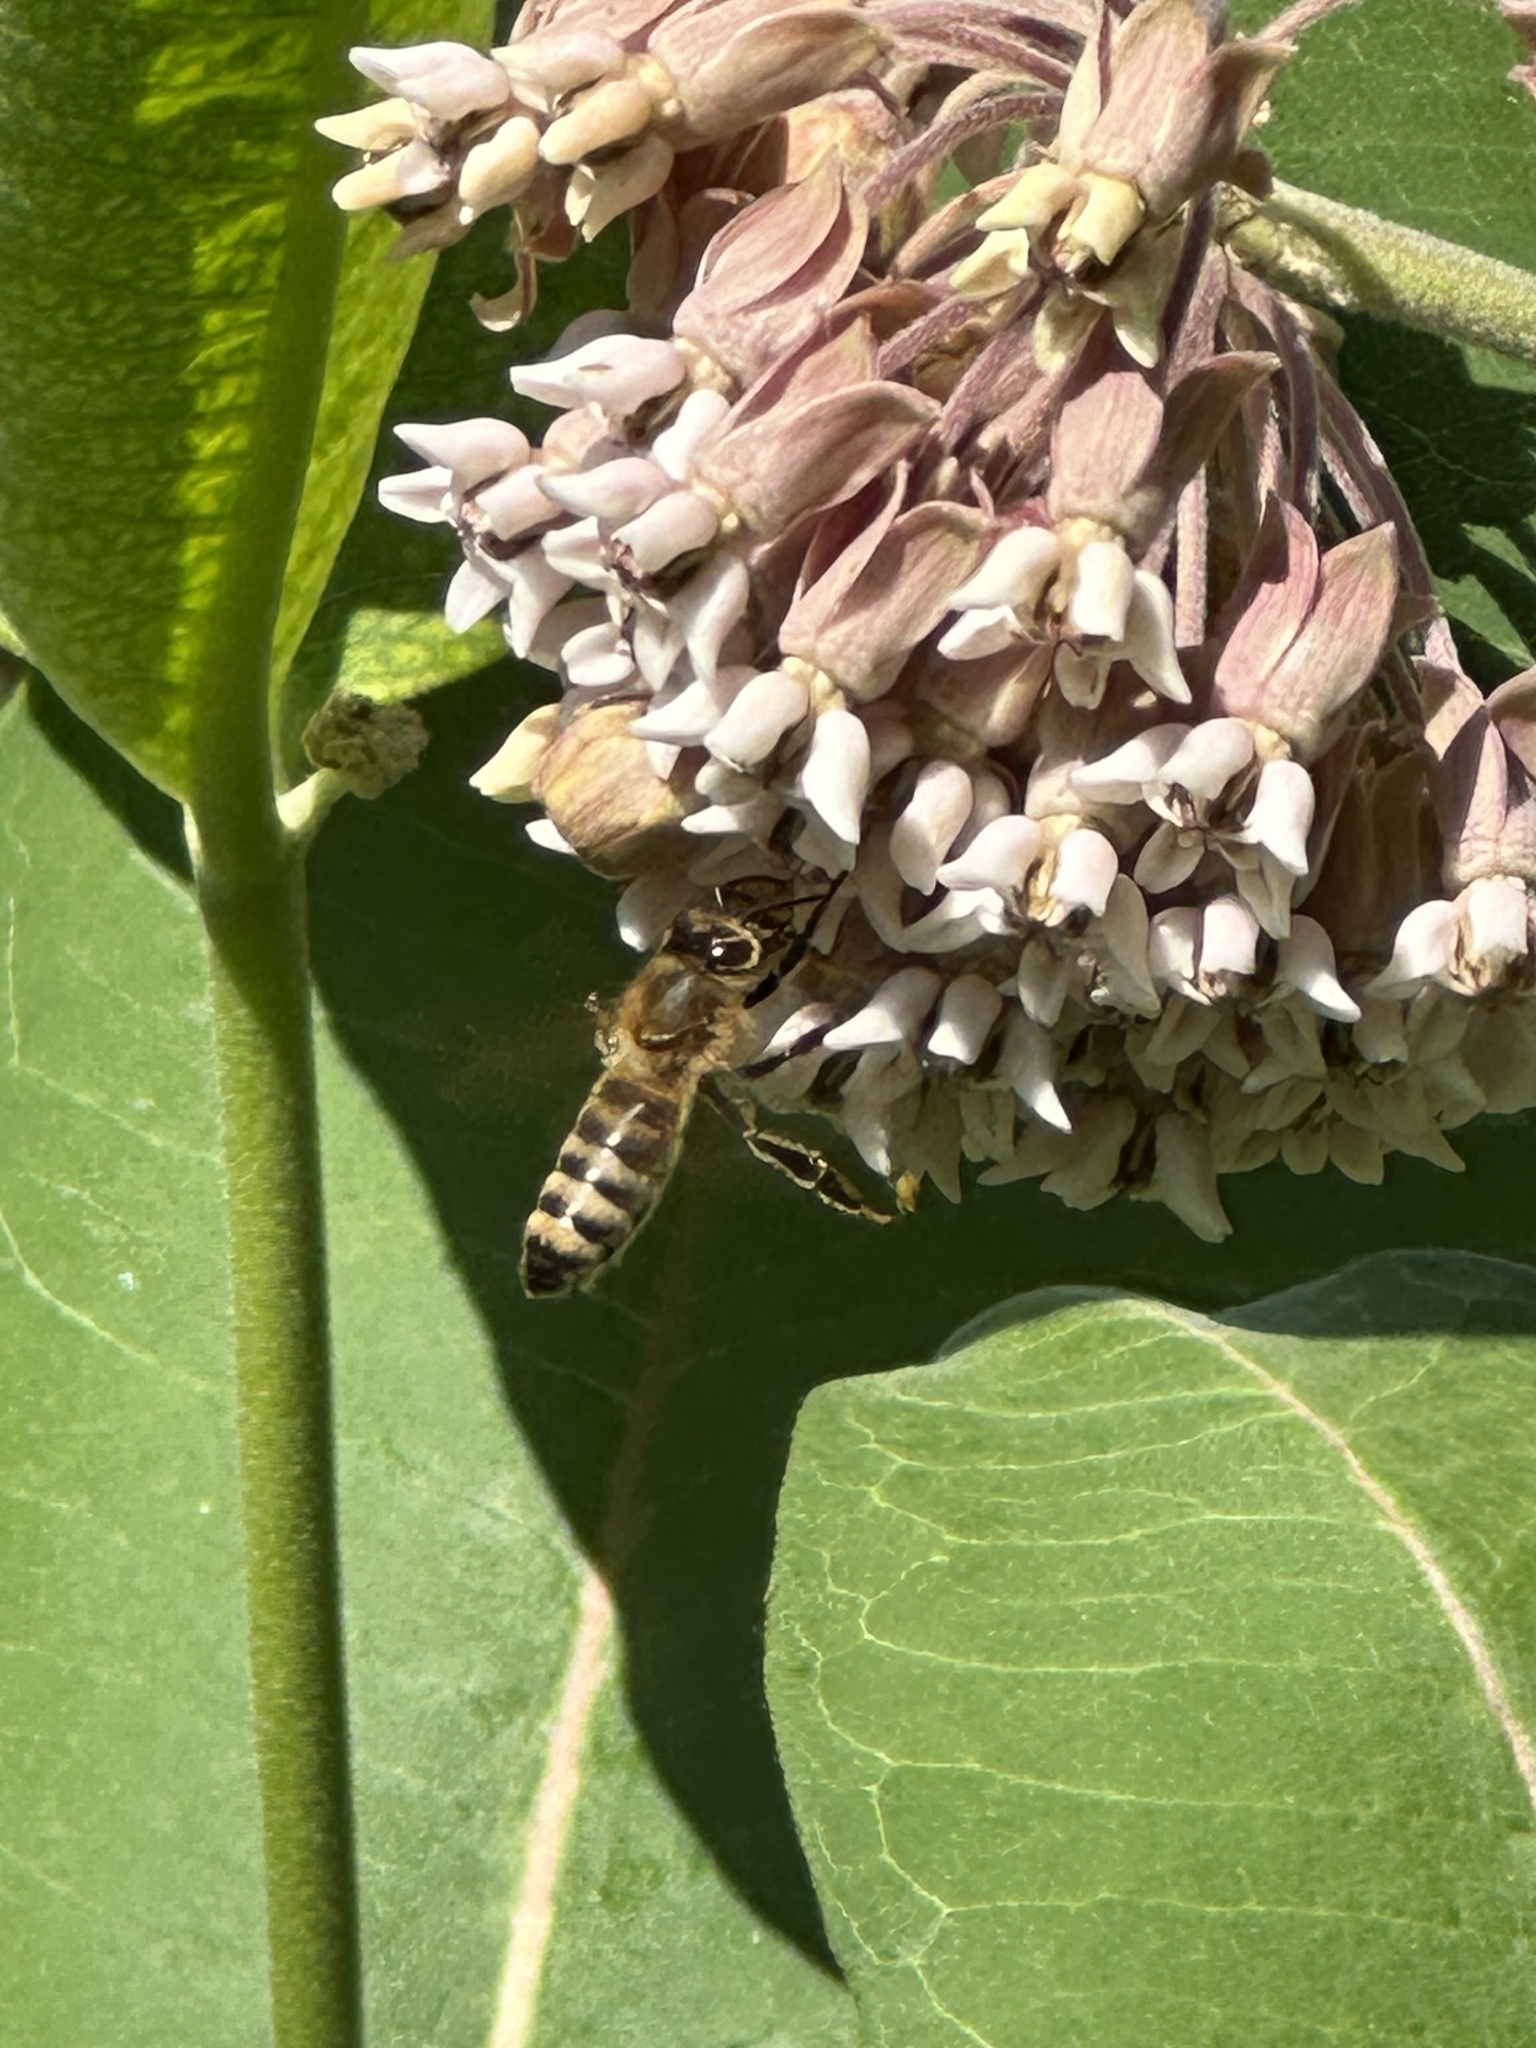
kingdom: Animalia
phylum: Arthropoda
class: Insecta
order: Hymenoptera
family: Apidae
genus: Apis
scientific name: Apis mellifera
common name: Honey bee
